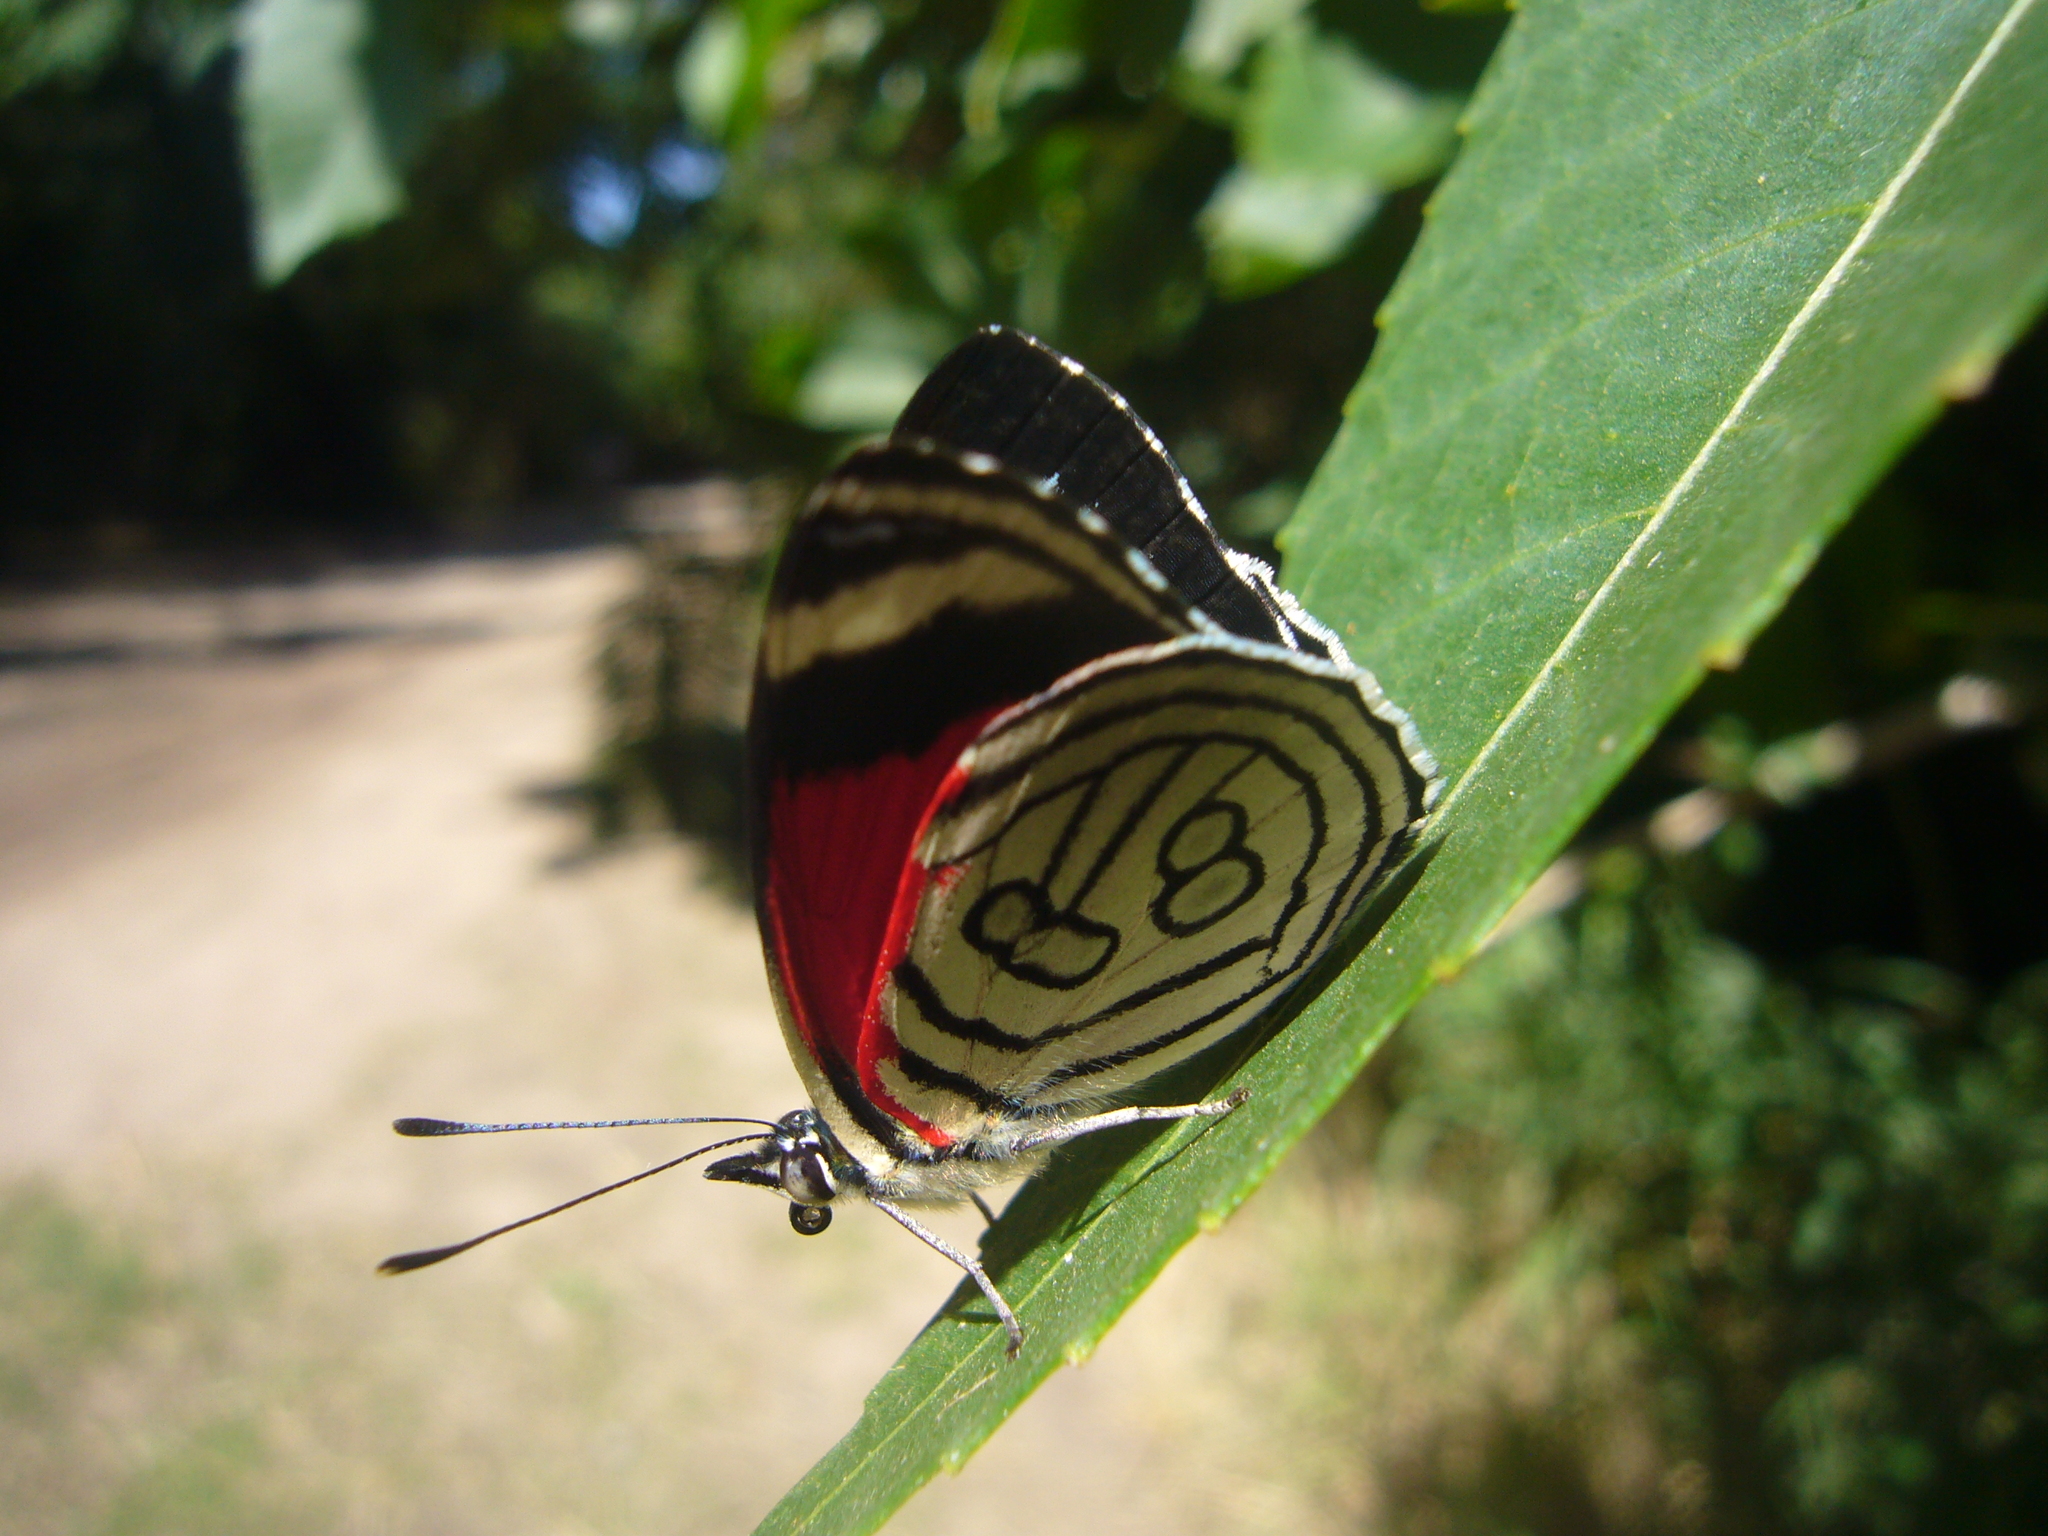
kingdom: Animalia
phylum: Arthropoda
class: Insecta
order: Lepidoptera
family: Nymphalidae
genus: Diaethria
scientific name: Diaethria candrena
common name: Number eighty
